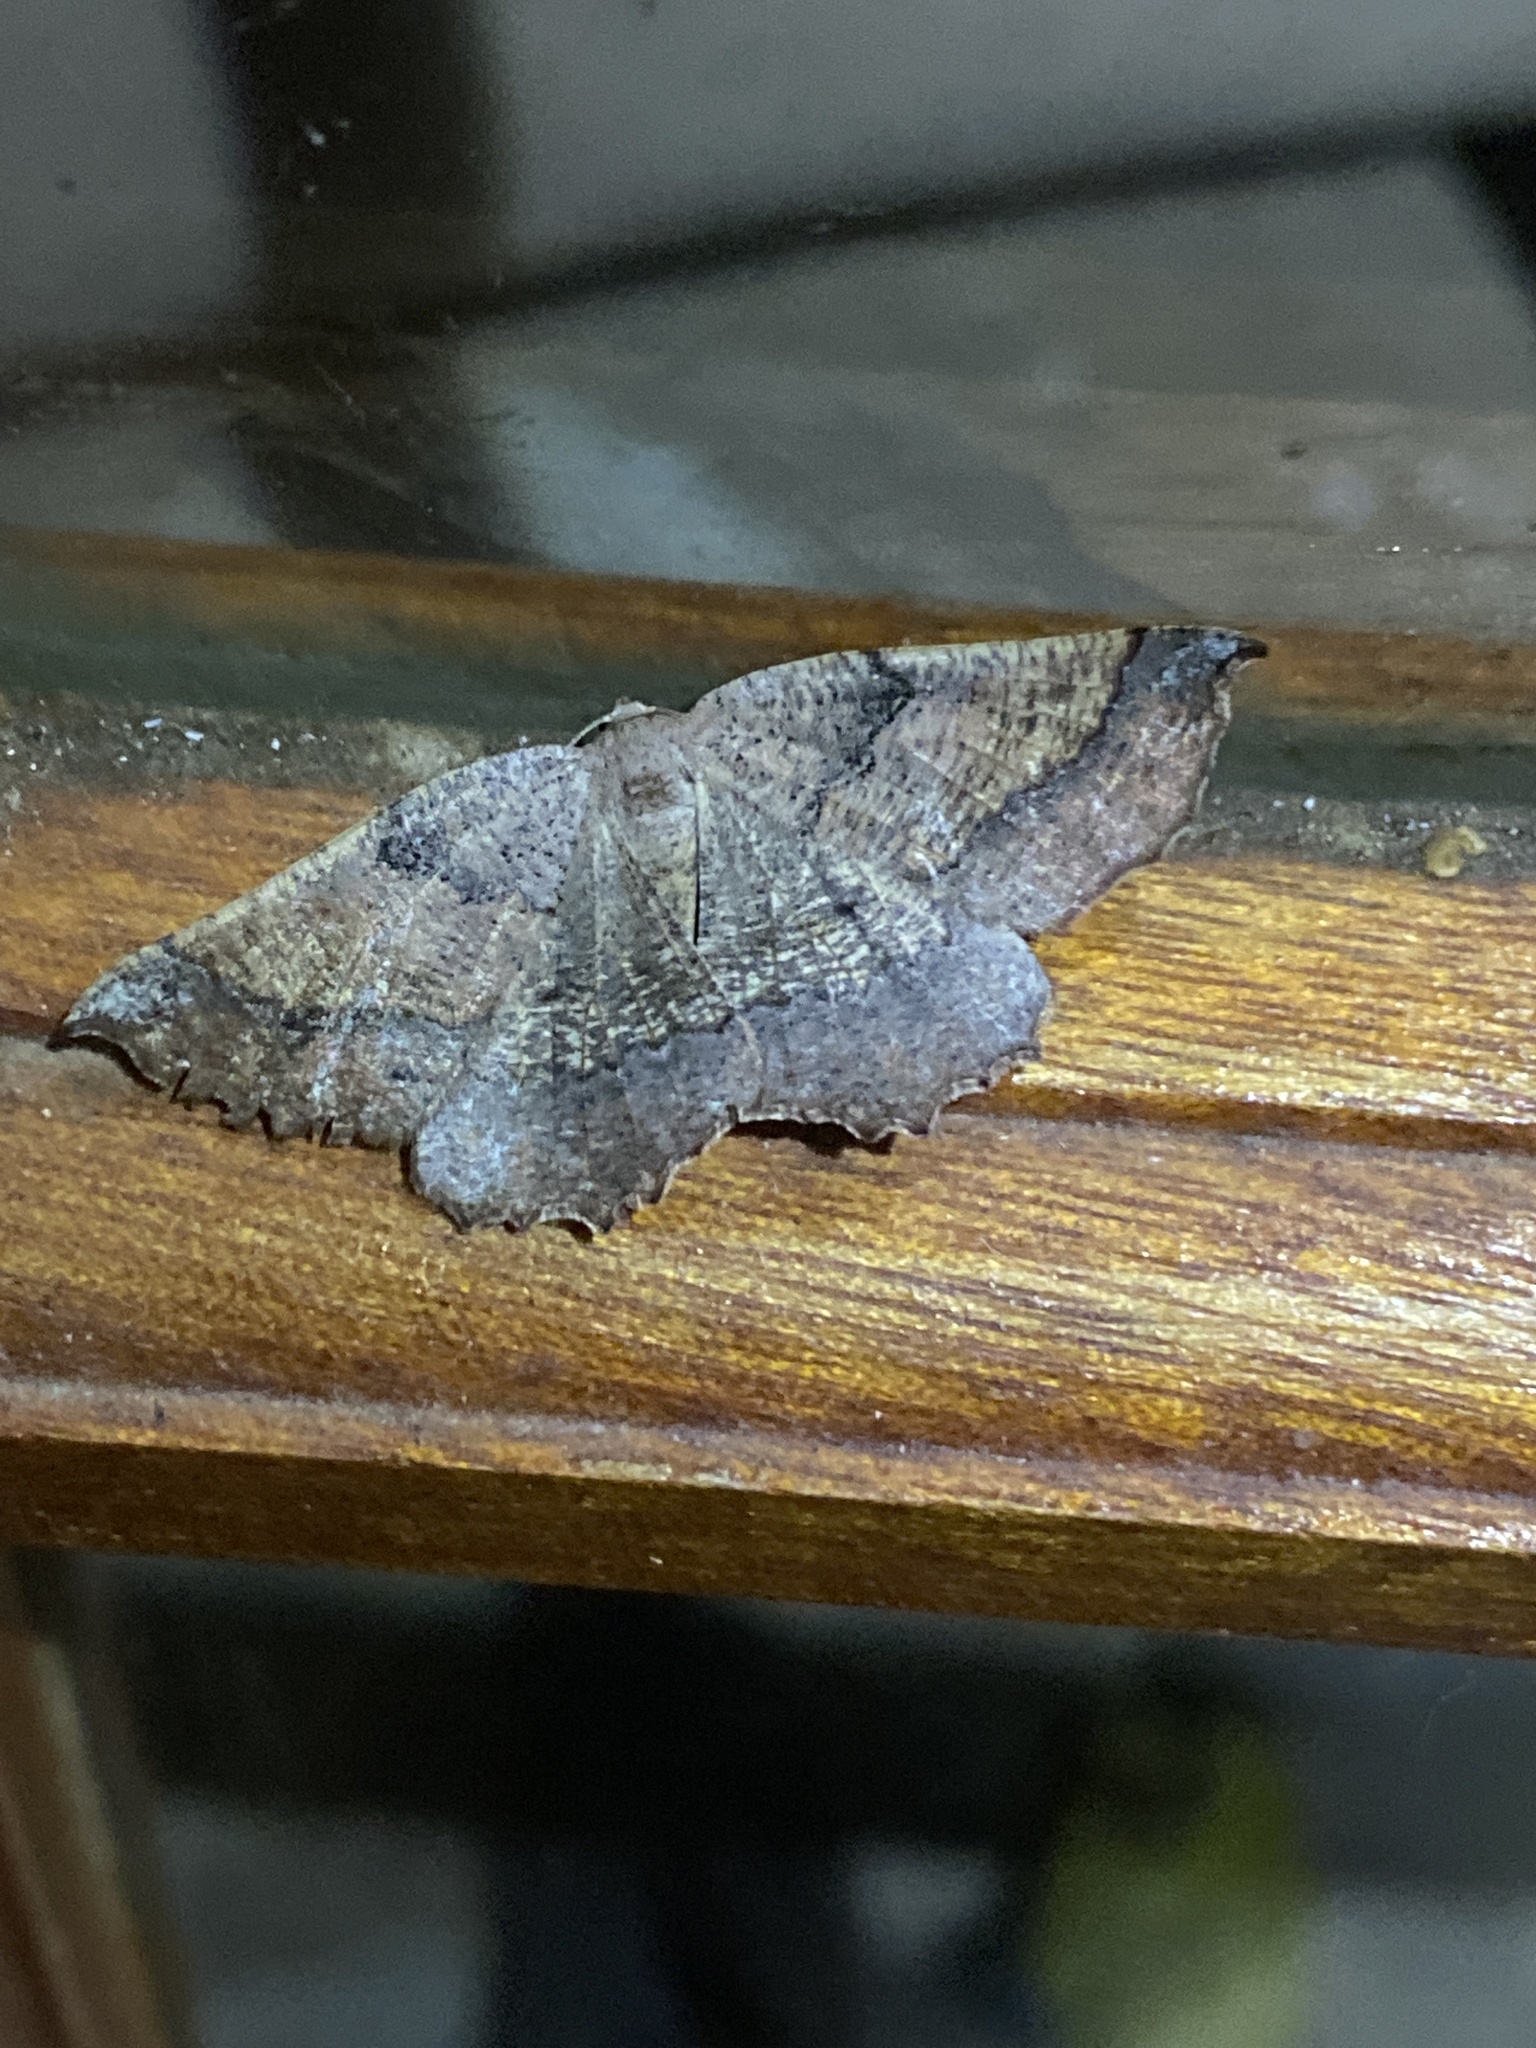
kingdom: Animalia
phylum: Arthropoda
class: Insecta
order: Lepidoptera
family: Geometridae
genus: Drepanogynis
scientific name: Drepanogynis mixtaria
